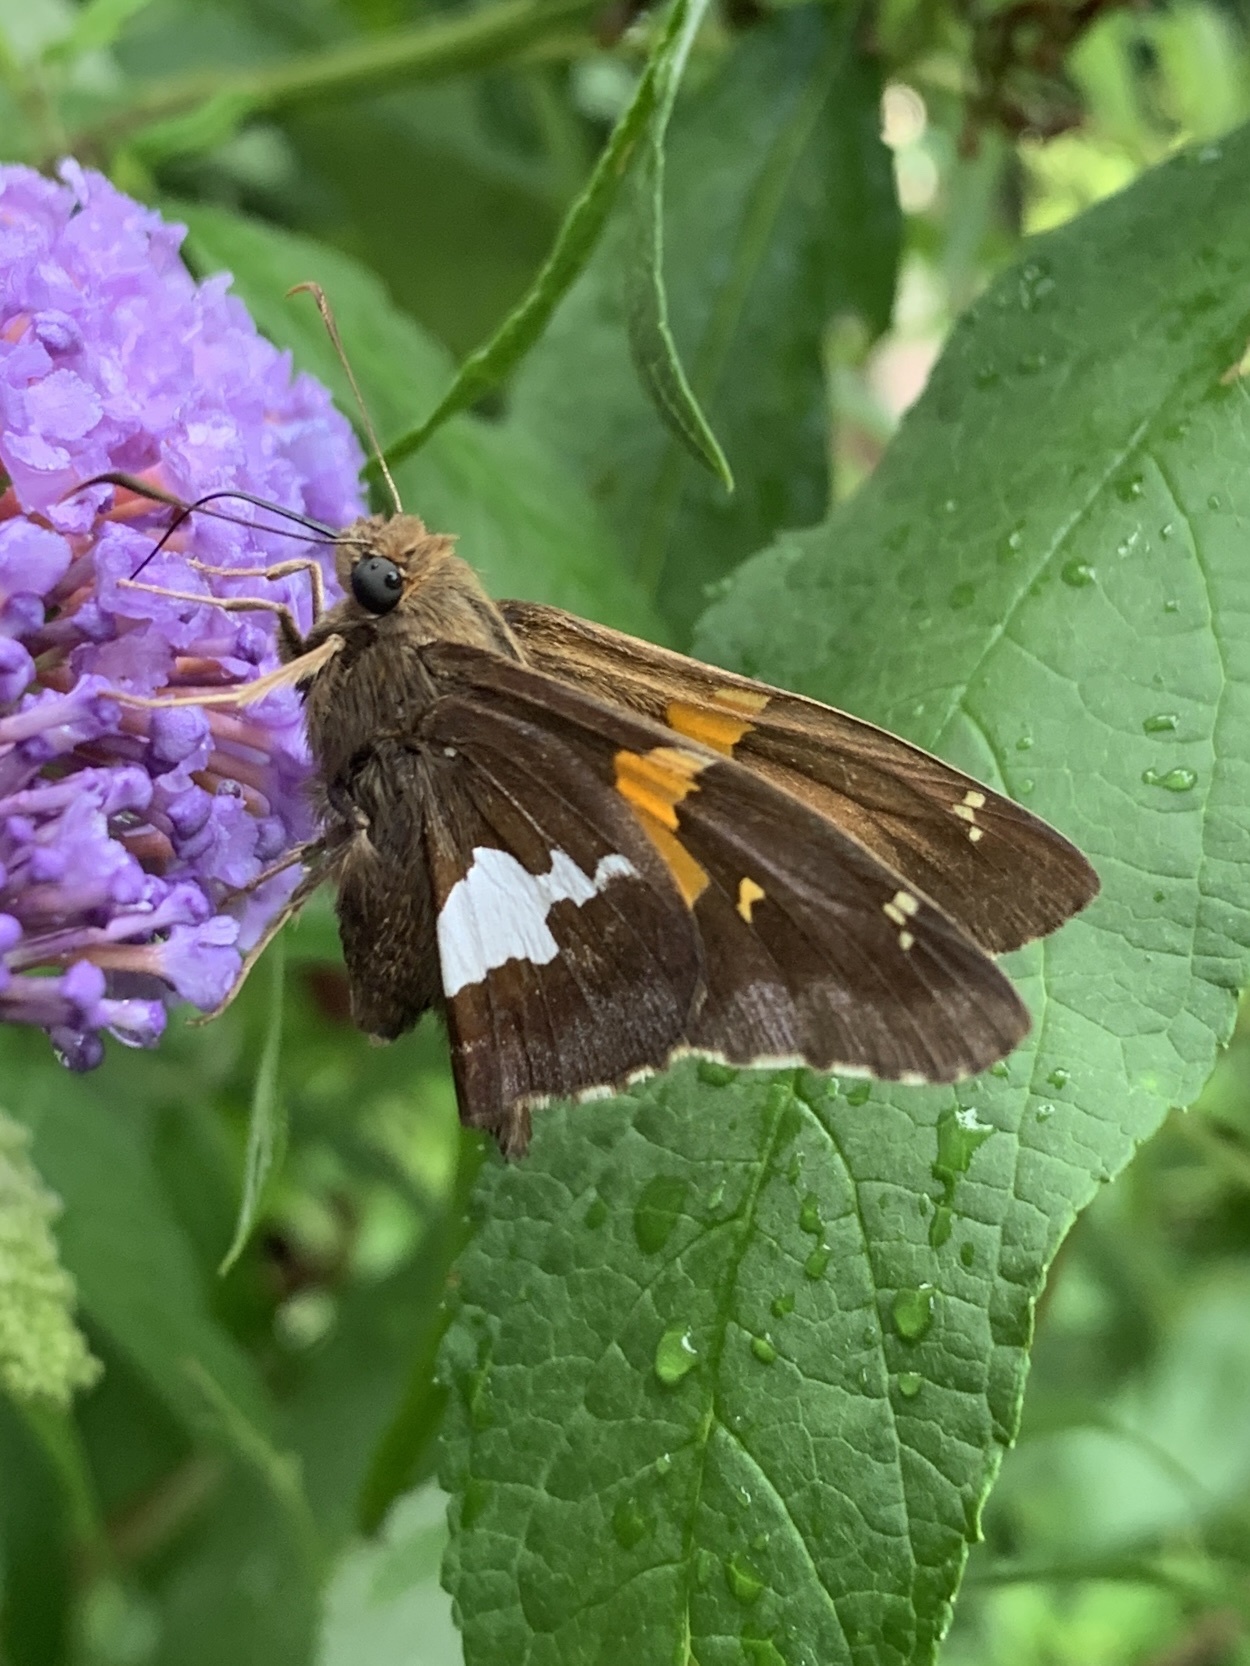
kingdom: Animalia
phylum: Arthropoda
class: Insecta
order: Lepidoptera
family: Hesperiidae
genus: Epargyreus
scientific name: Epargyreus clarus
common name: Silver-spotted skipper
